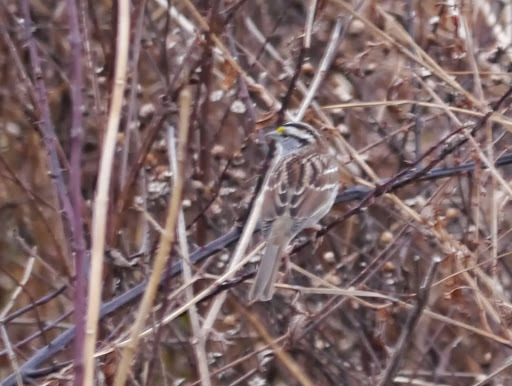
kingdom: Animalia
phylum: Chordata
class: Aves
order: Passeriformes
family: Passerellidae
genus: Zonotrichia
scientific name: Zonotrichia albicollis
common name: White-throated sparrow
